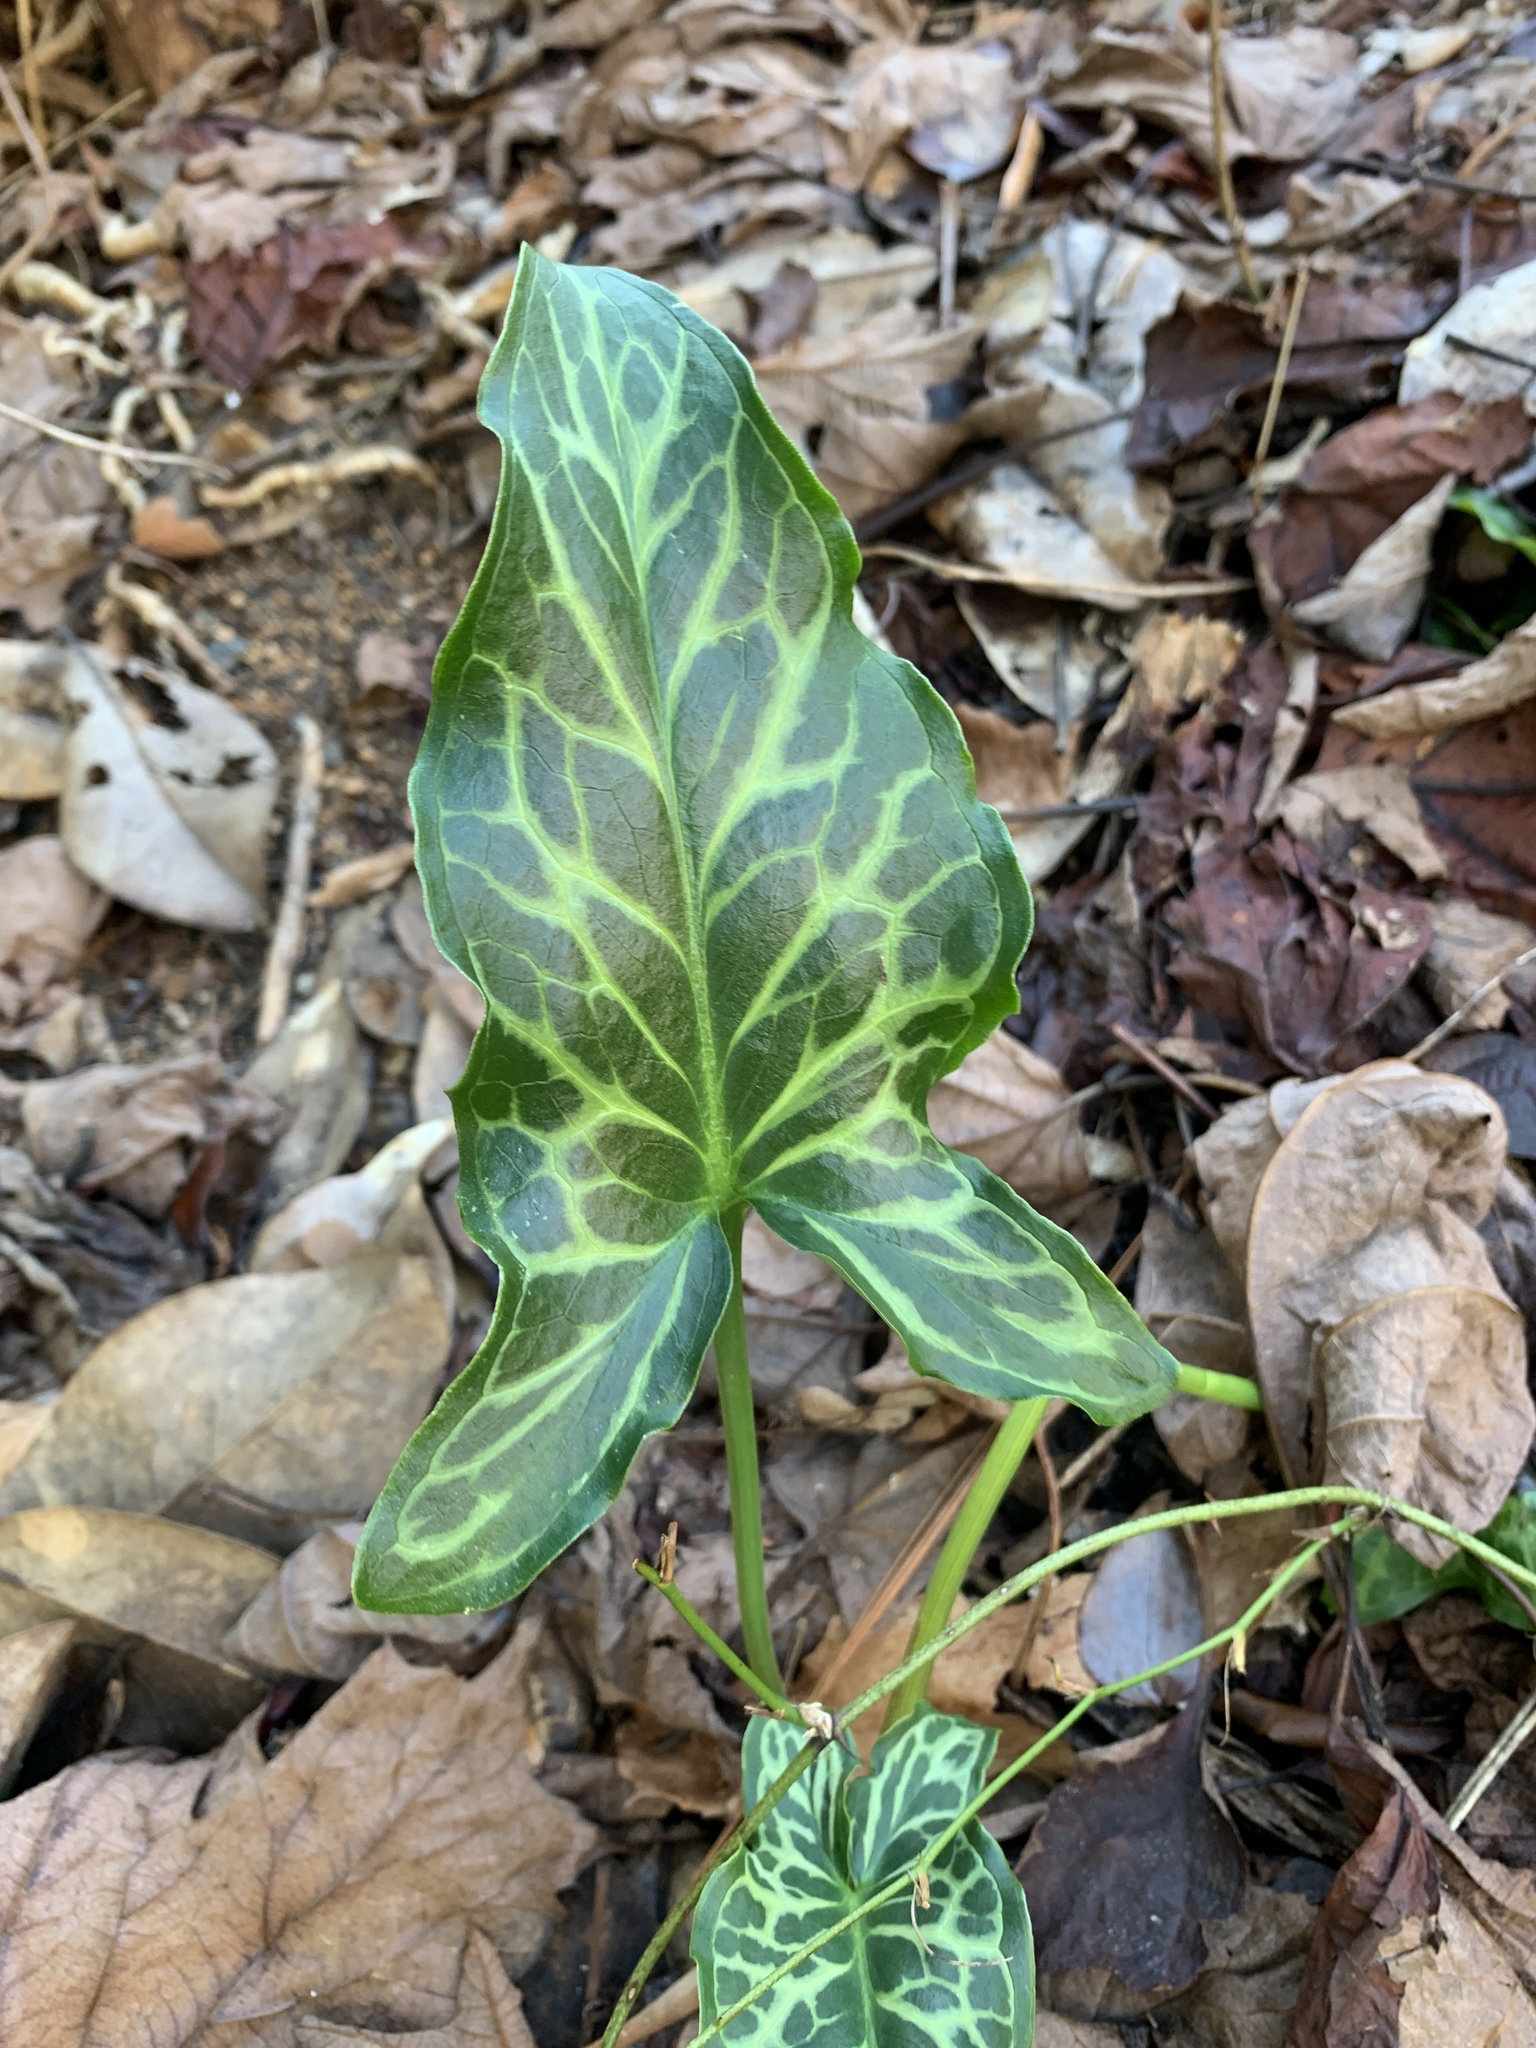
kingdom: Plantae
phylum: Tracheophyta
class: Liliopsida
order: Alismatales
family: Araceae
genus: Arum
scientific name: Arum italicum
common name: Italian lords-and-ladies
